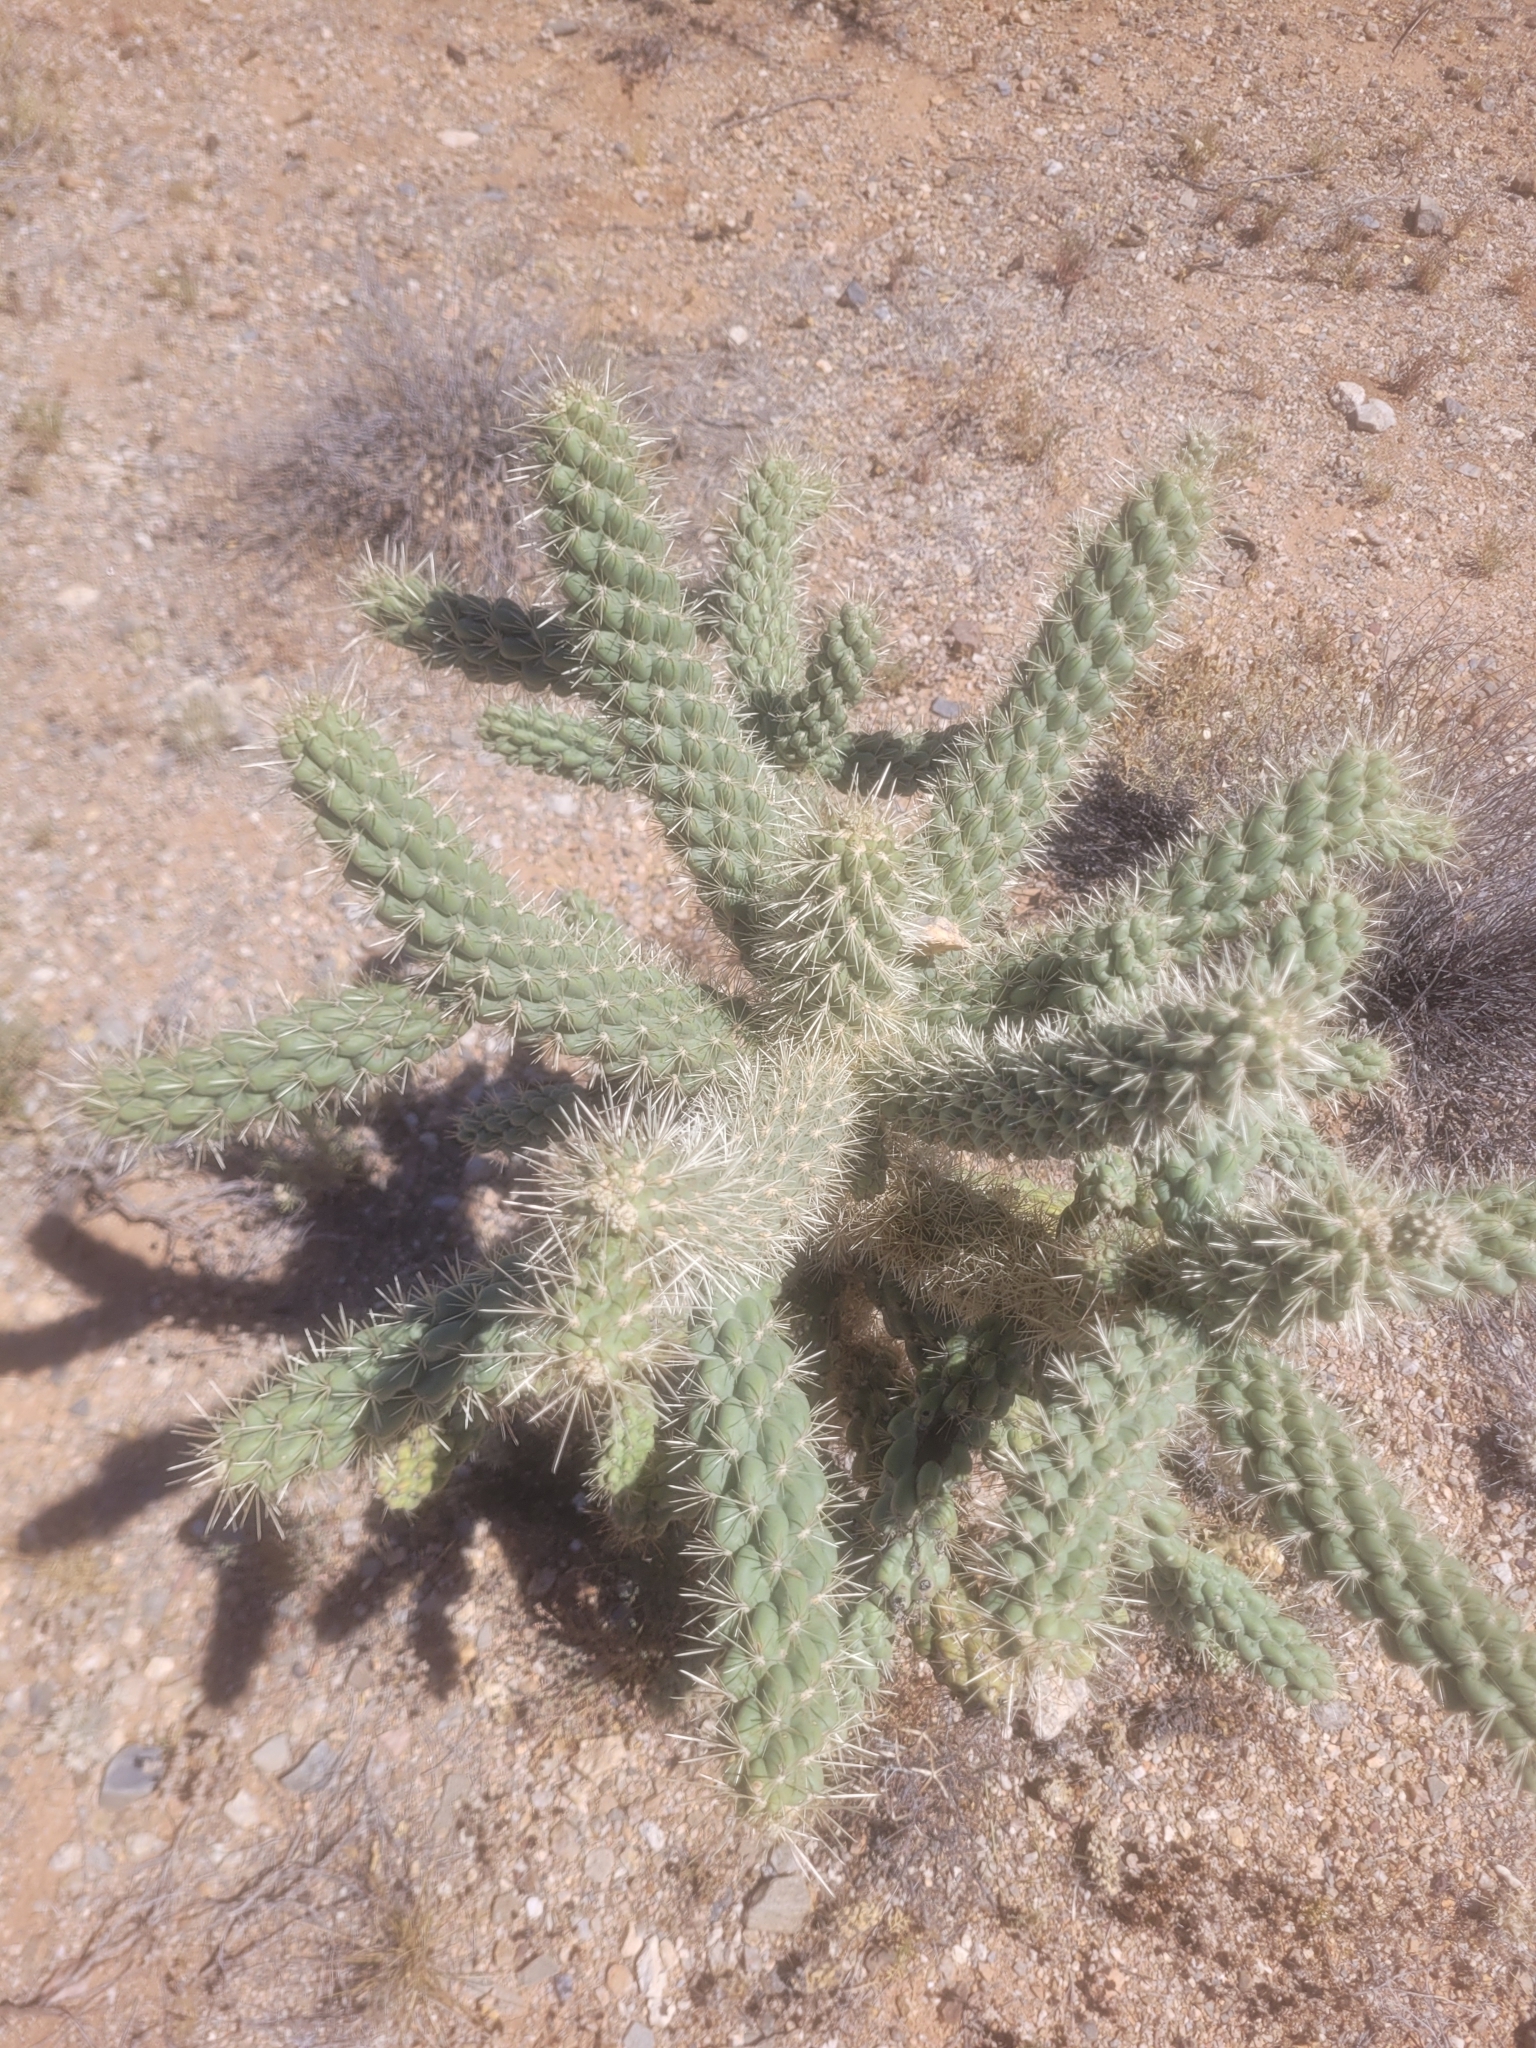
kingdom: Plantae
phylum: Tracheophyta
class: Magnoliopsida
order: Caryophyllales
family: Cactaceae
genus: Cylindropuntia
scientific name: Cylindropuntia fulgida
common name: Jumping cholla
